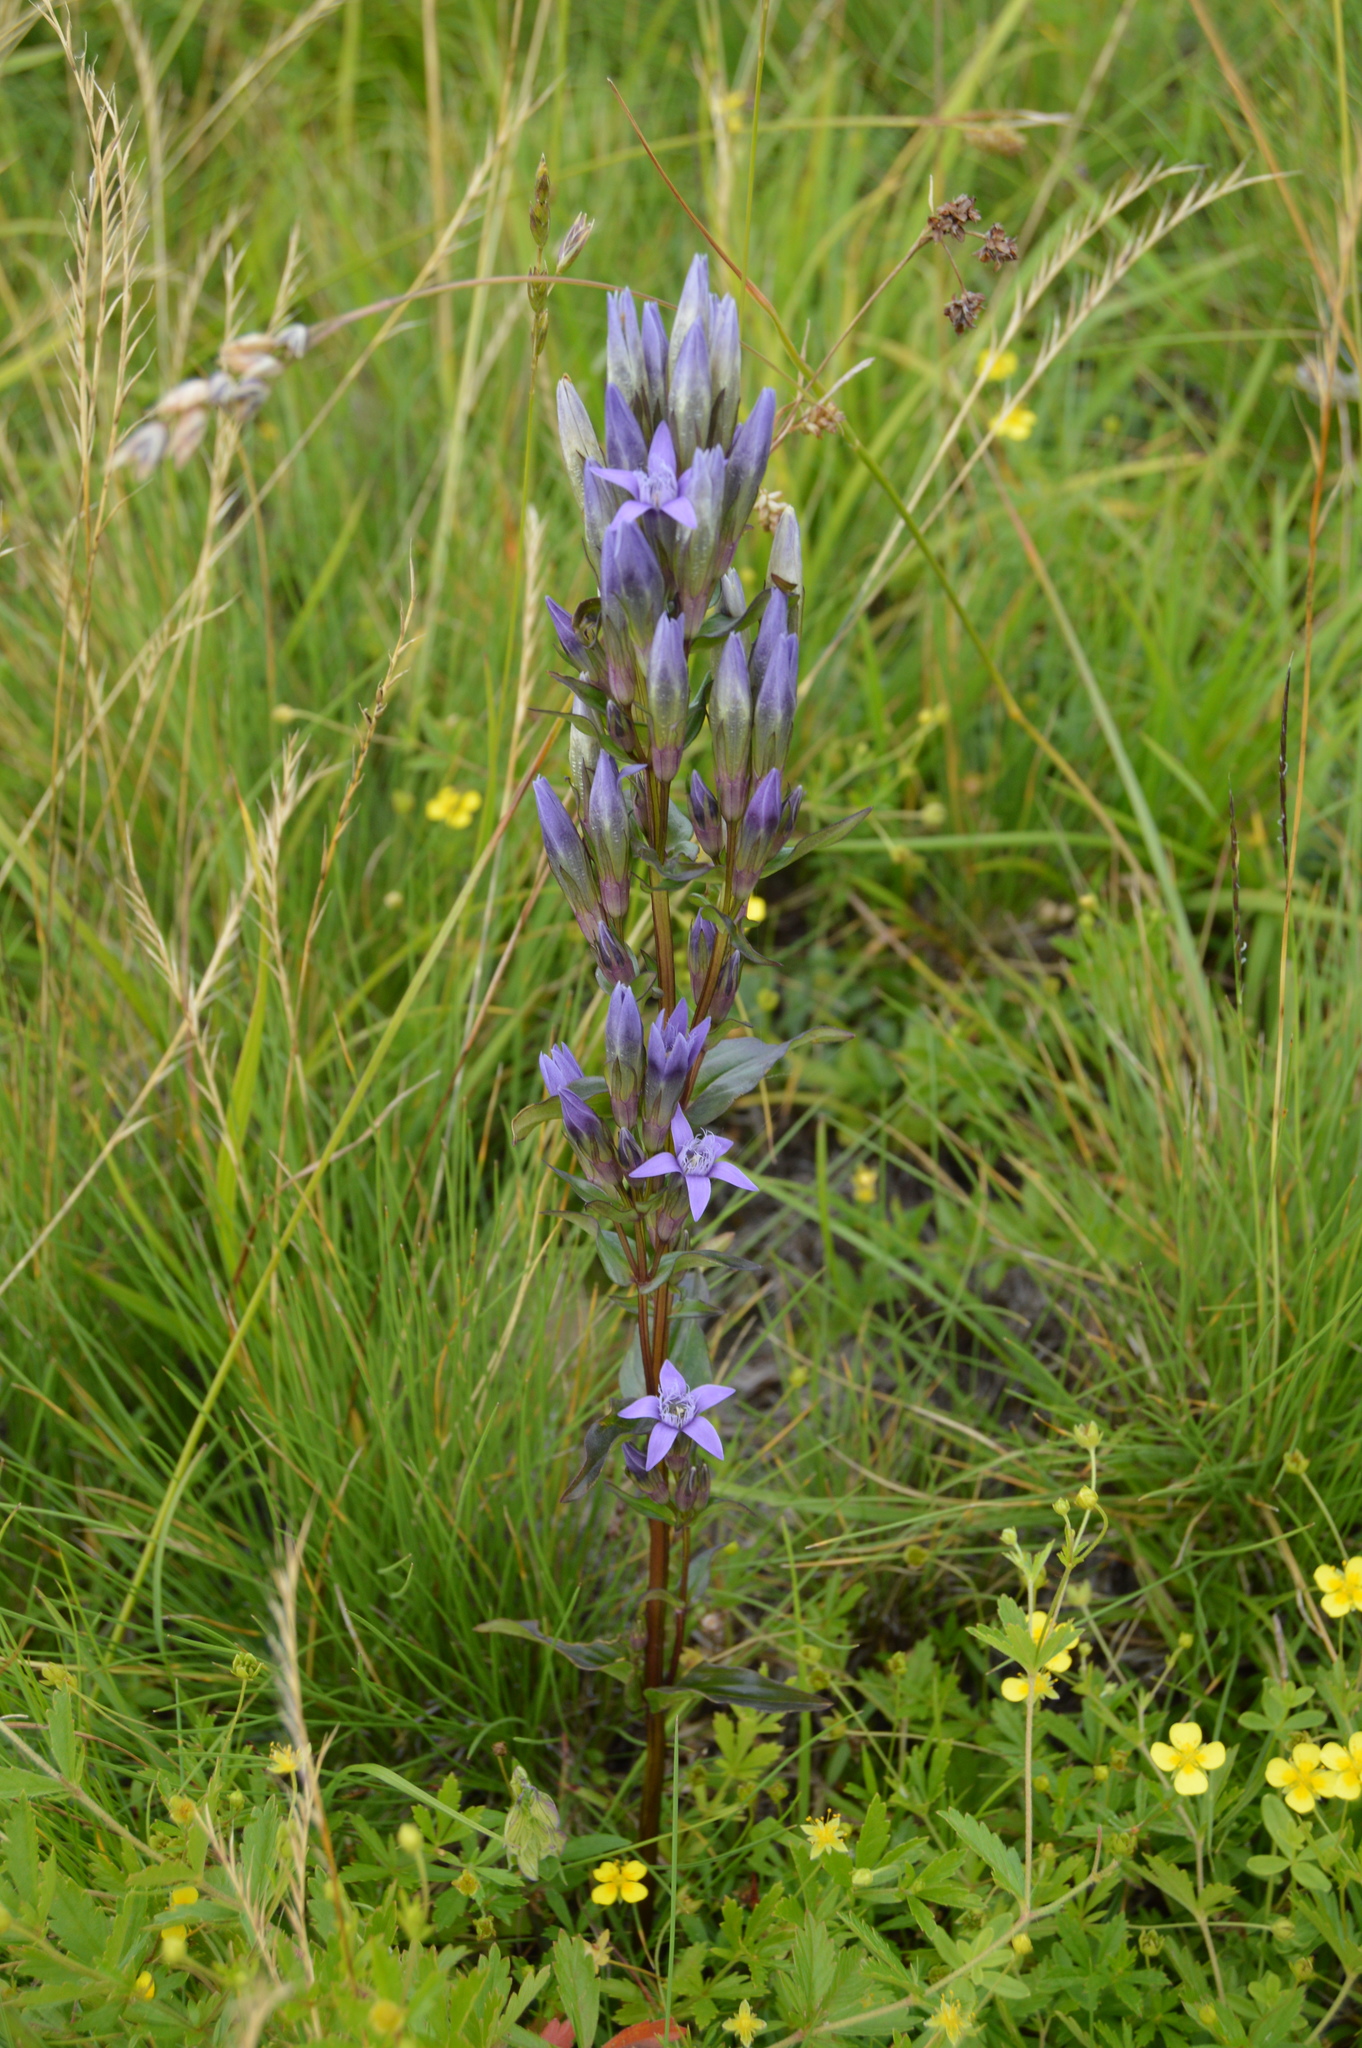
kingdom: Plantae
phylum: Tracheophyta
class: Magnoliopsida
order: Gentianales
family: Gentianaceae
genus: Gentianella
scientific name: Gentianella amarella
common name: Autumn gentian
